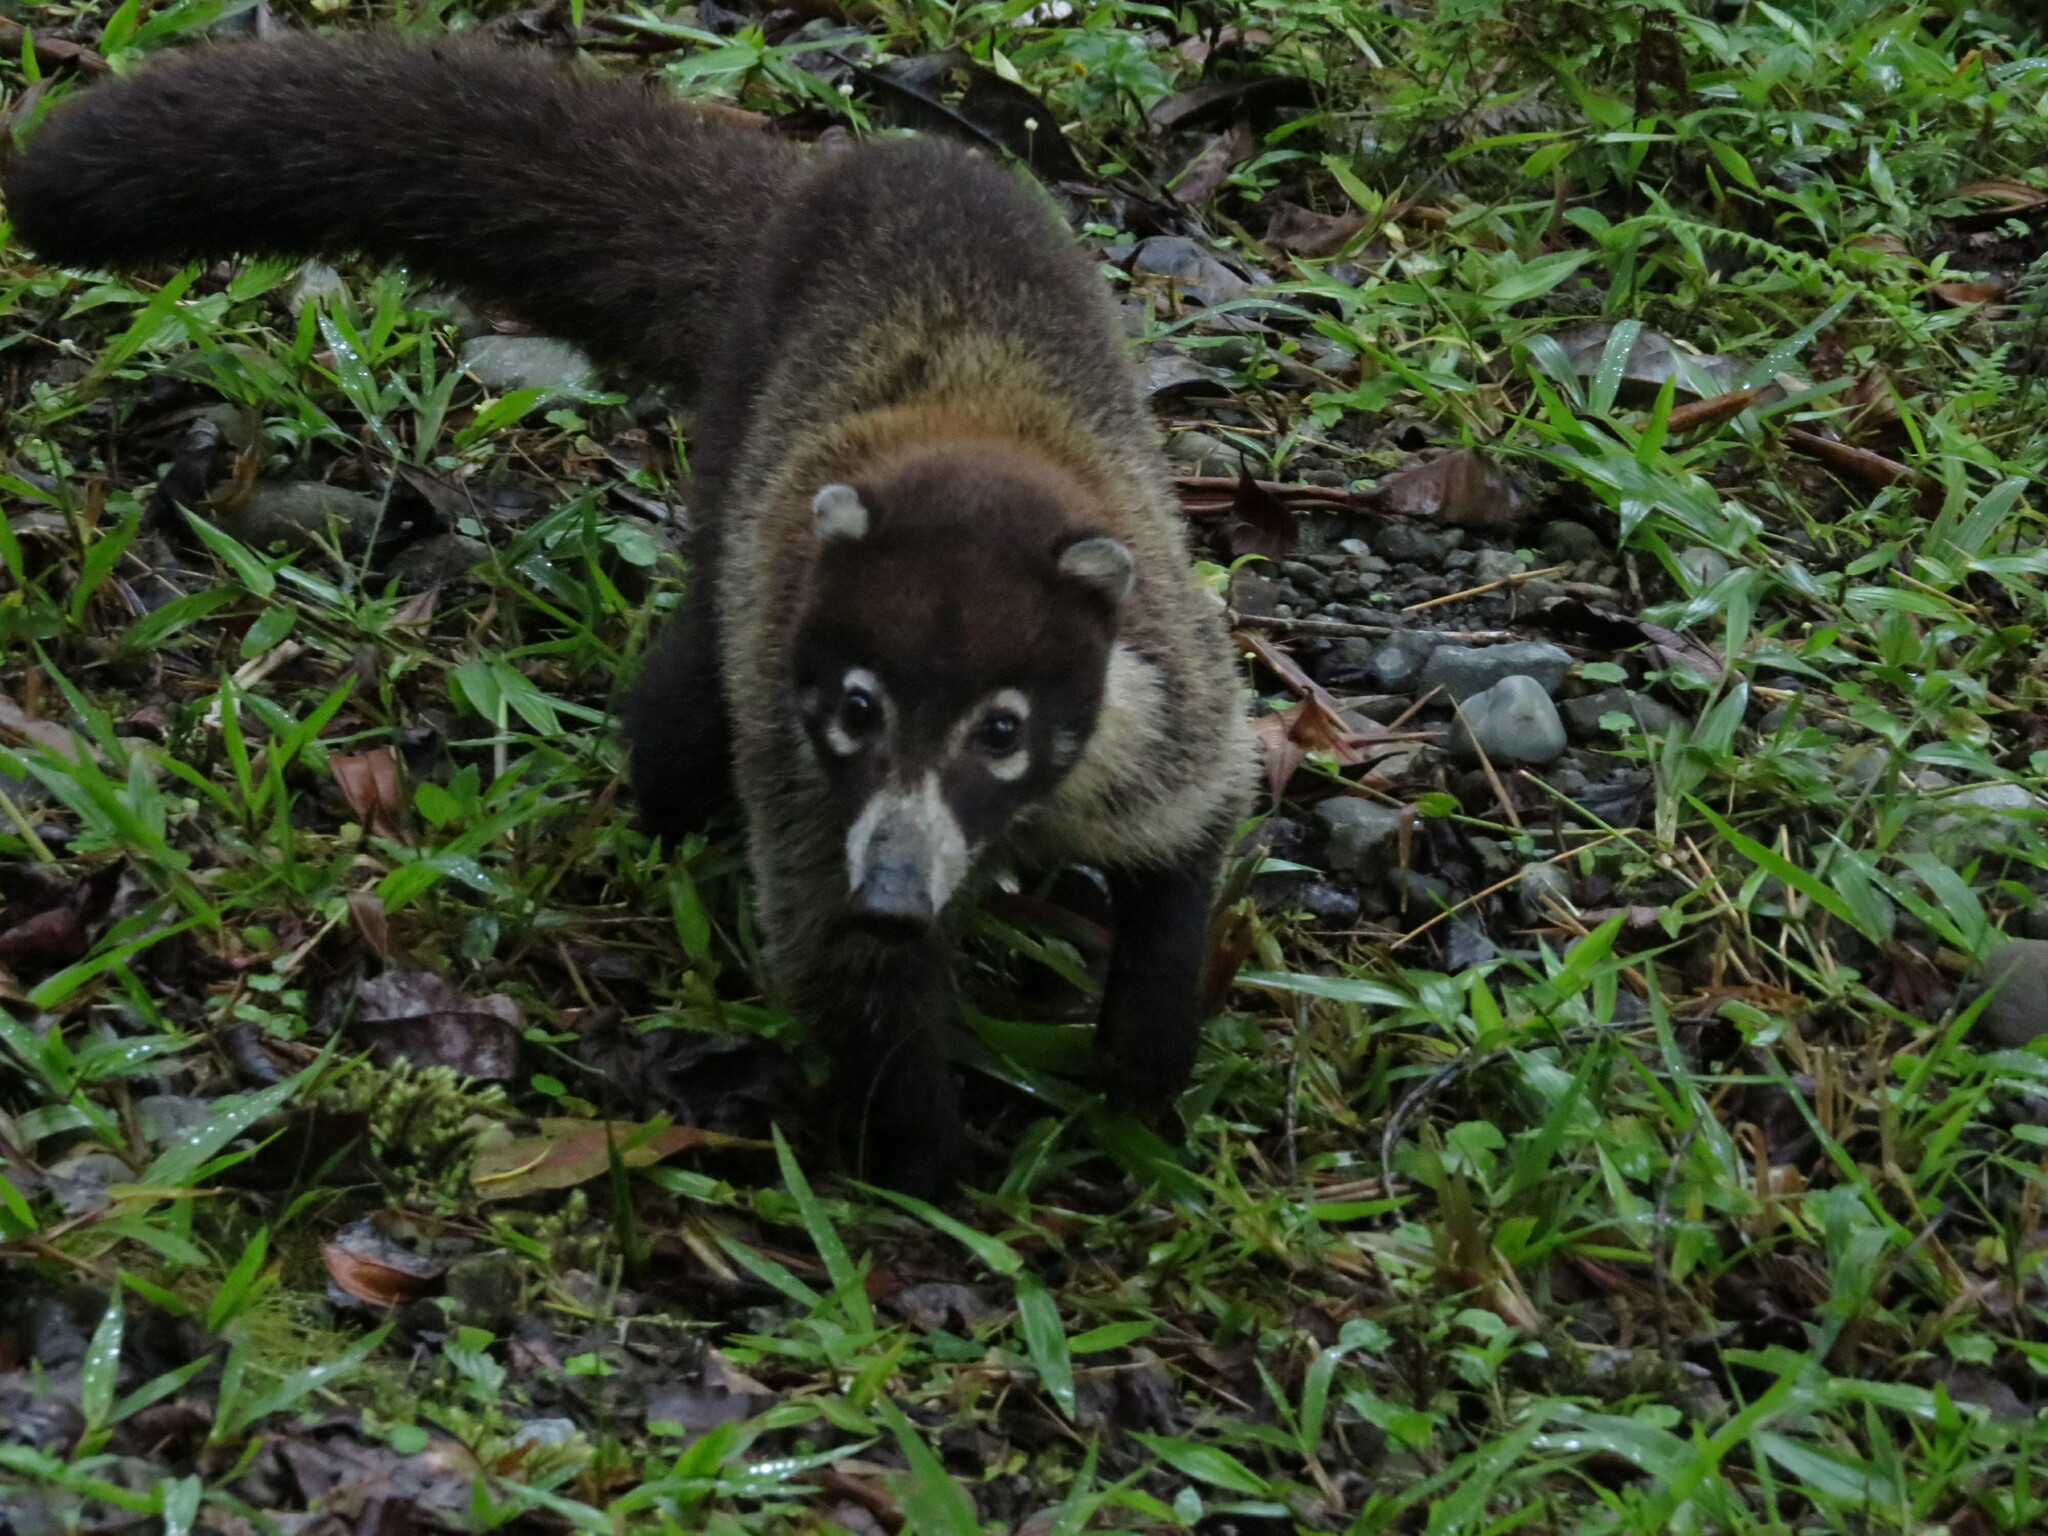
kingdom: Animalia
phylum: Chordata
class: Mammalia
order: Carnivora
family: Procyonidae
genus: Nasua
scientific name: Nasua narica
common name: White-nosed coati
